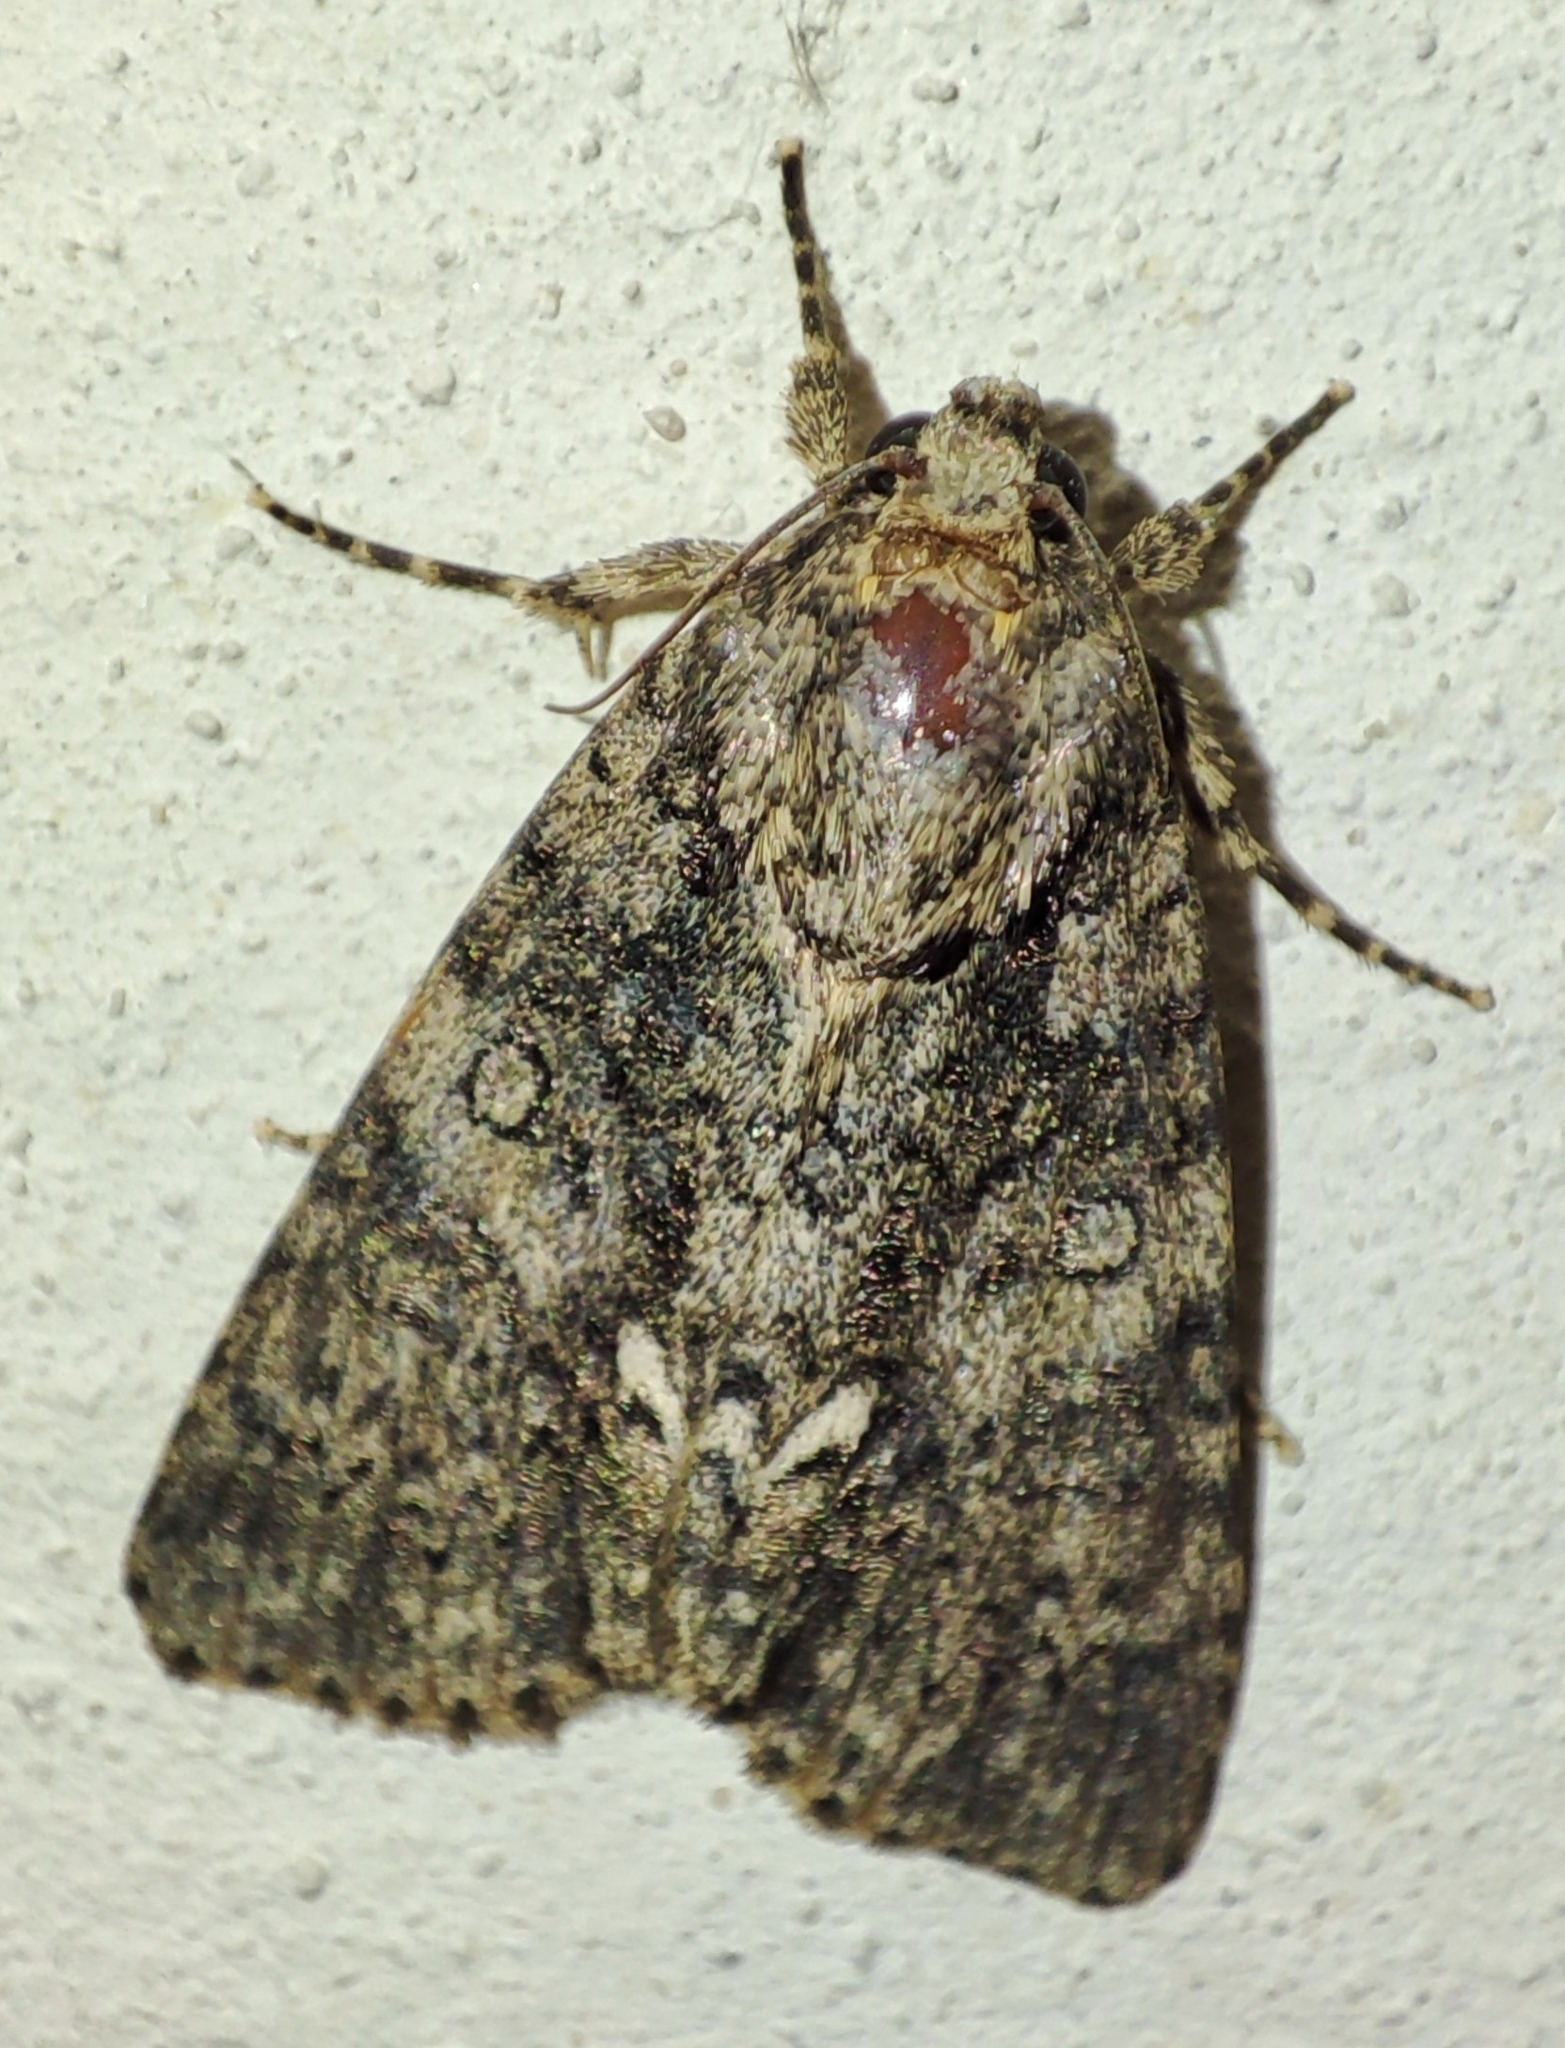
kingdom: Animalia
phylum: Arthropoda
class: Insecta
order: Lepidoptera
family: Noctuidae
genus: Acronicta
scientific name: Acronicta rumicis
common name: Knot grass
